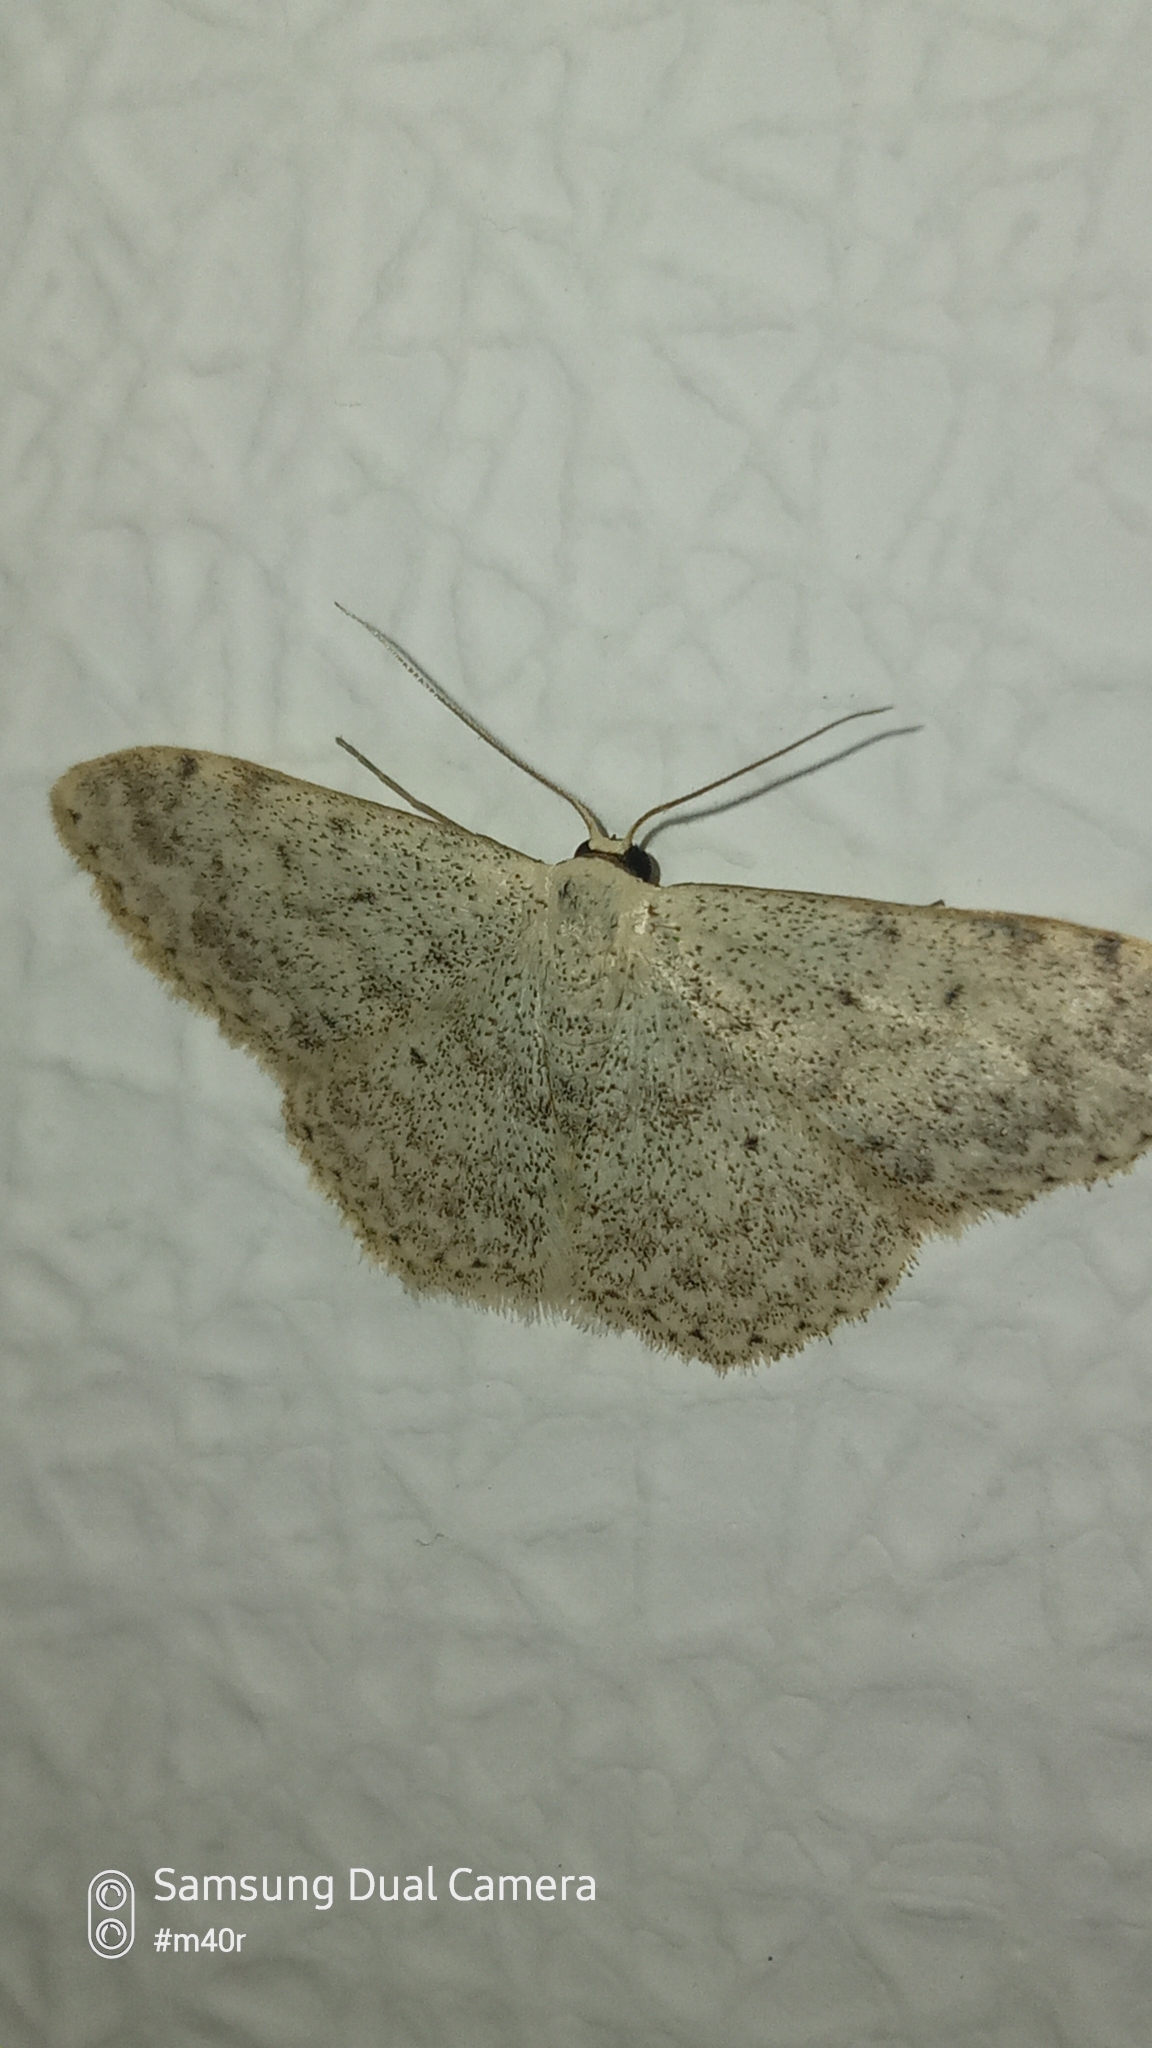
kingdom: Animalia
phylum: Arthropoda
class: Insecta
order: Lepidoptera
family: Geometridae
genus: Scopula
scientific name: Scopula marginepunctata
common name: Mullein wave
